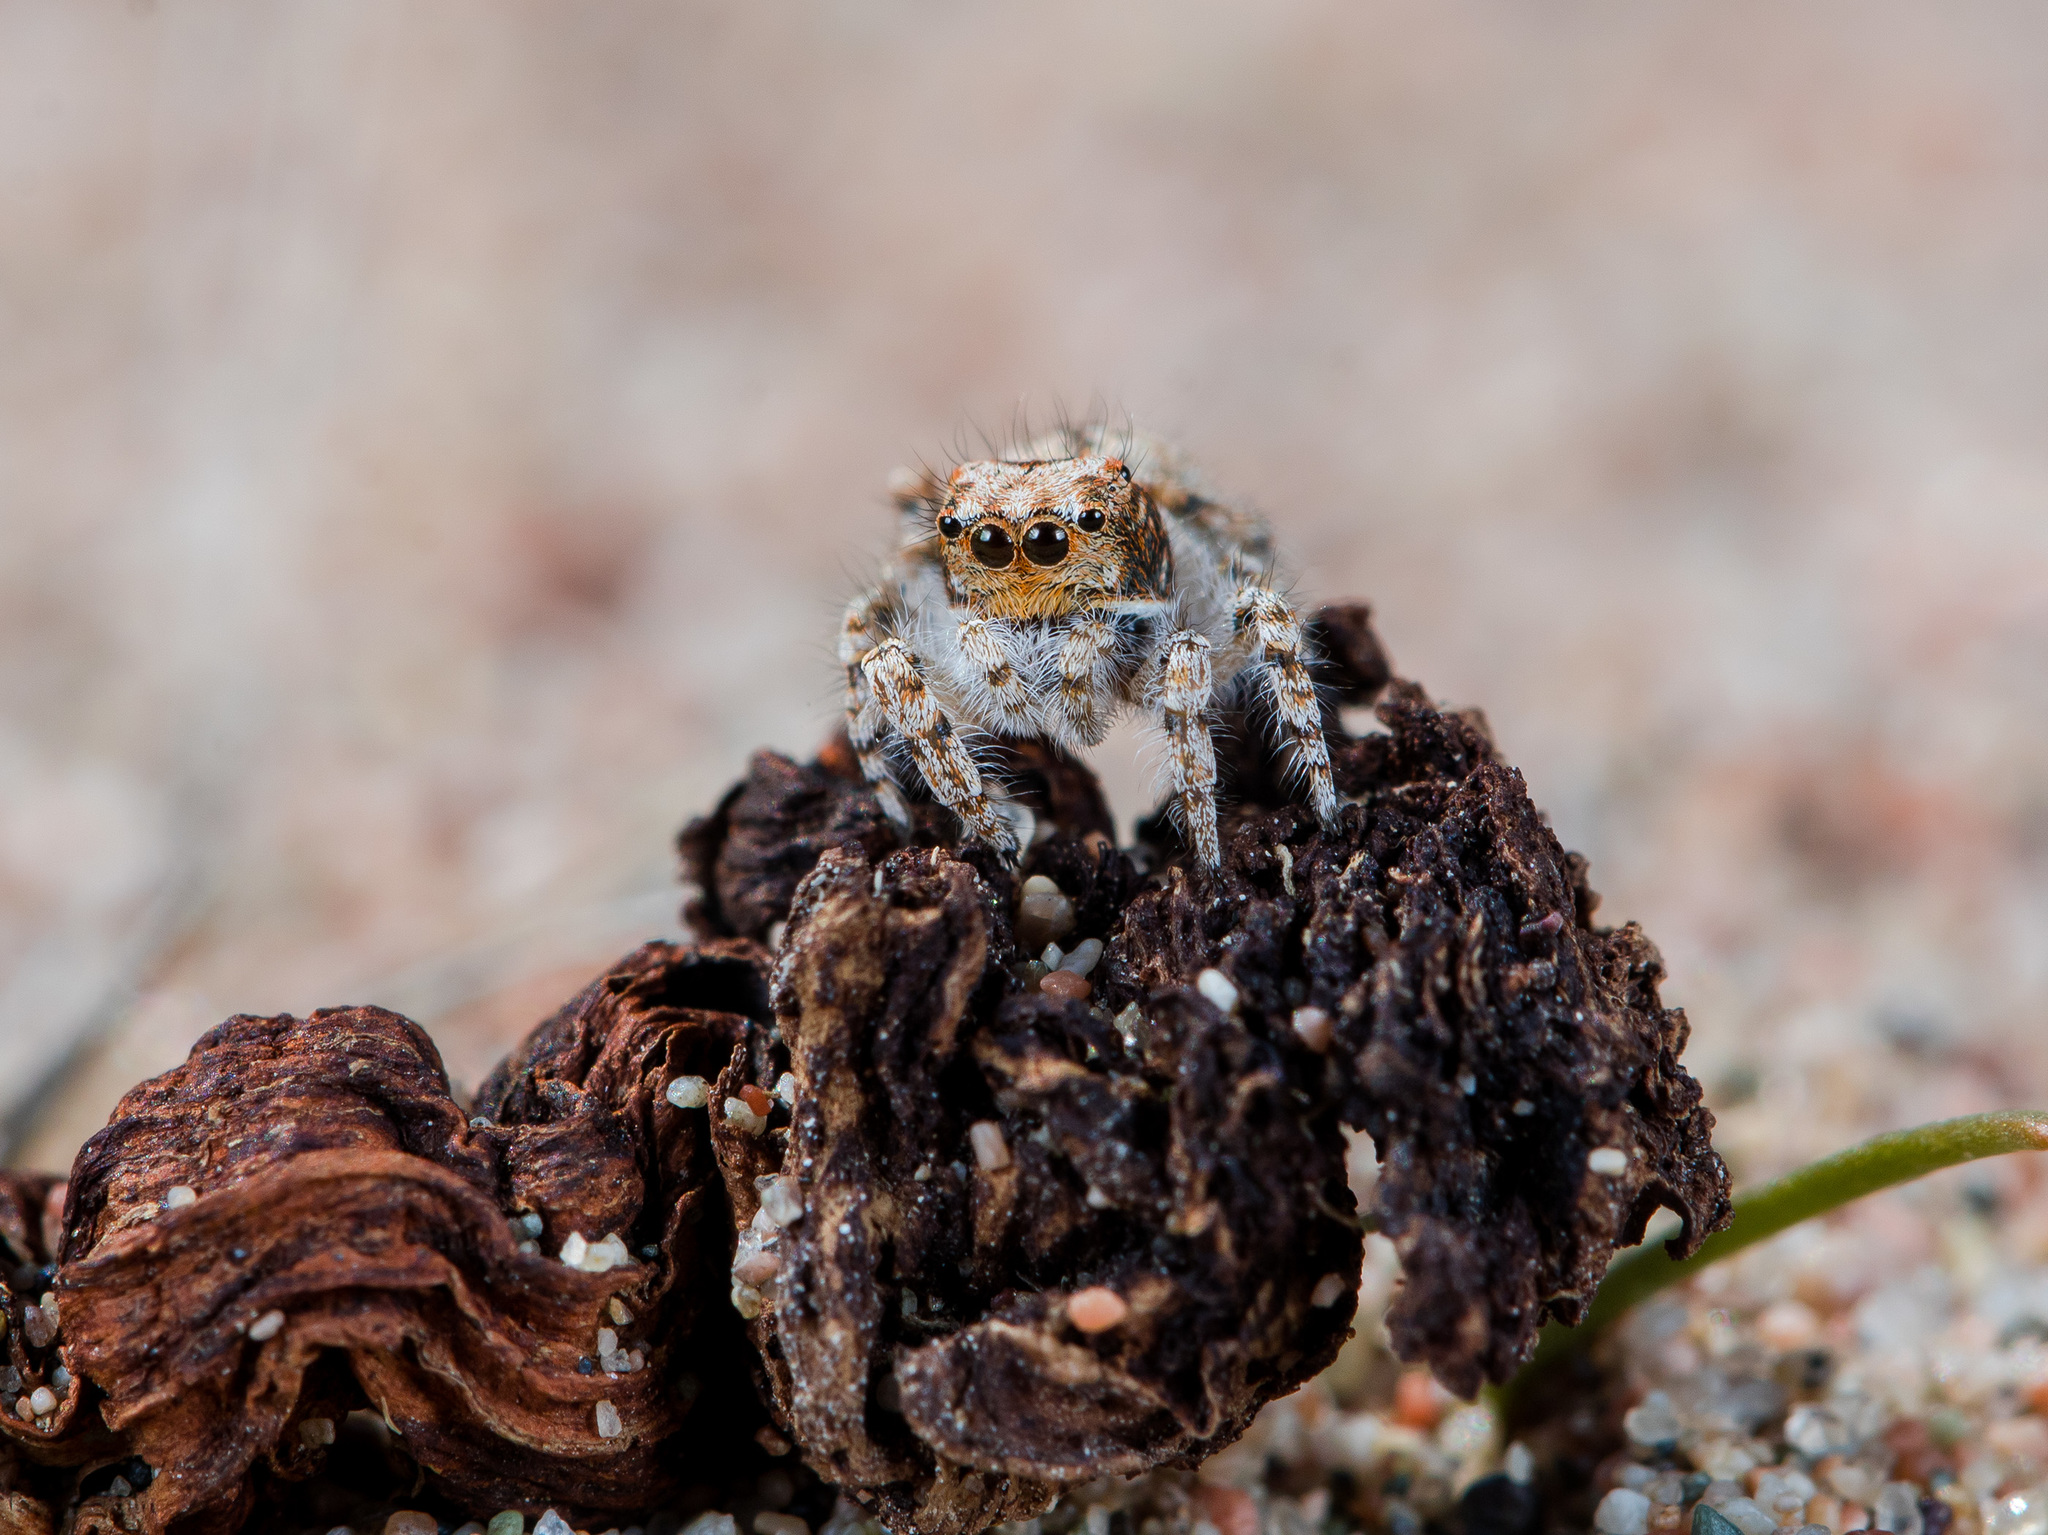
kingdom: Animalia
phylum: Arthropoda
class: Arachnida
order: Araneae
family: Salticidae
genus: Yllenus
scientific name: Yllenus uiguricus
